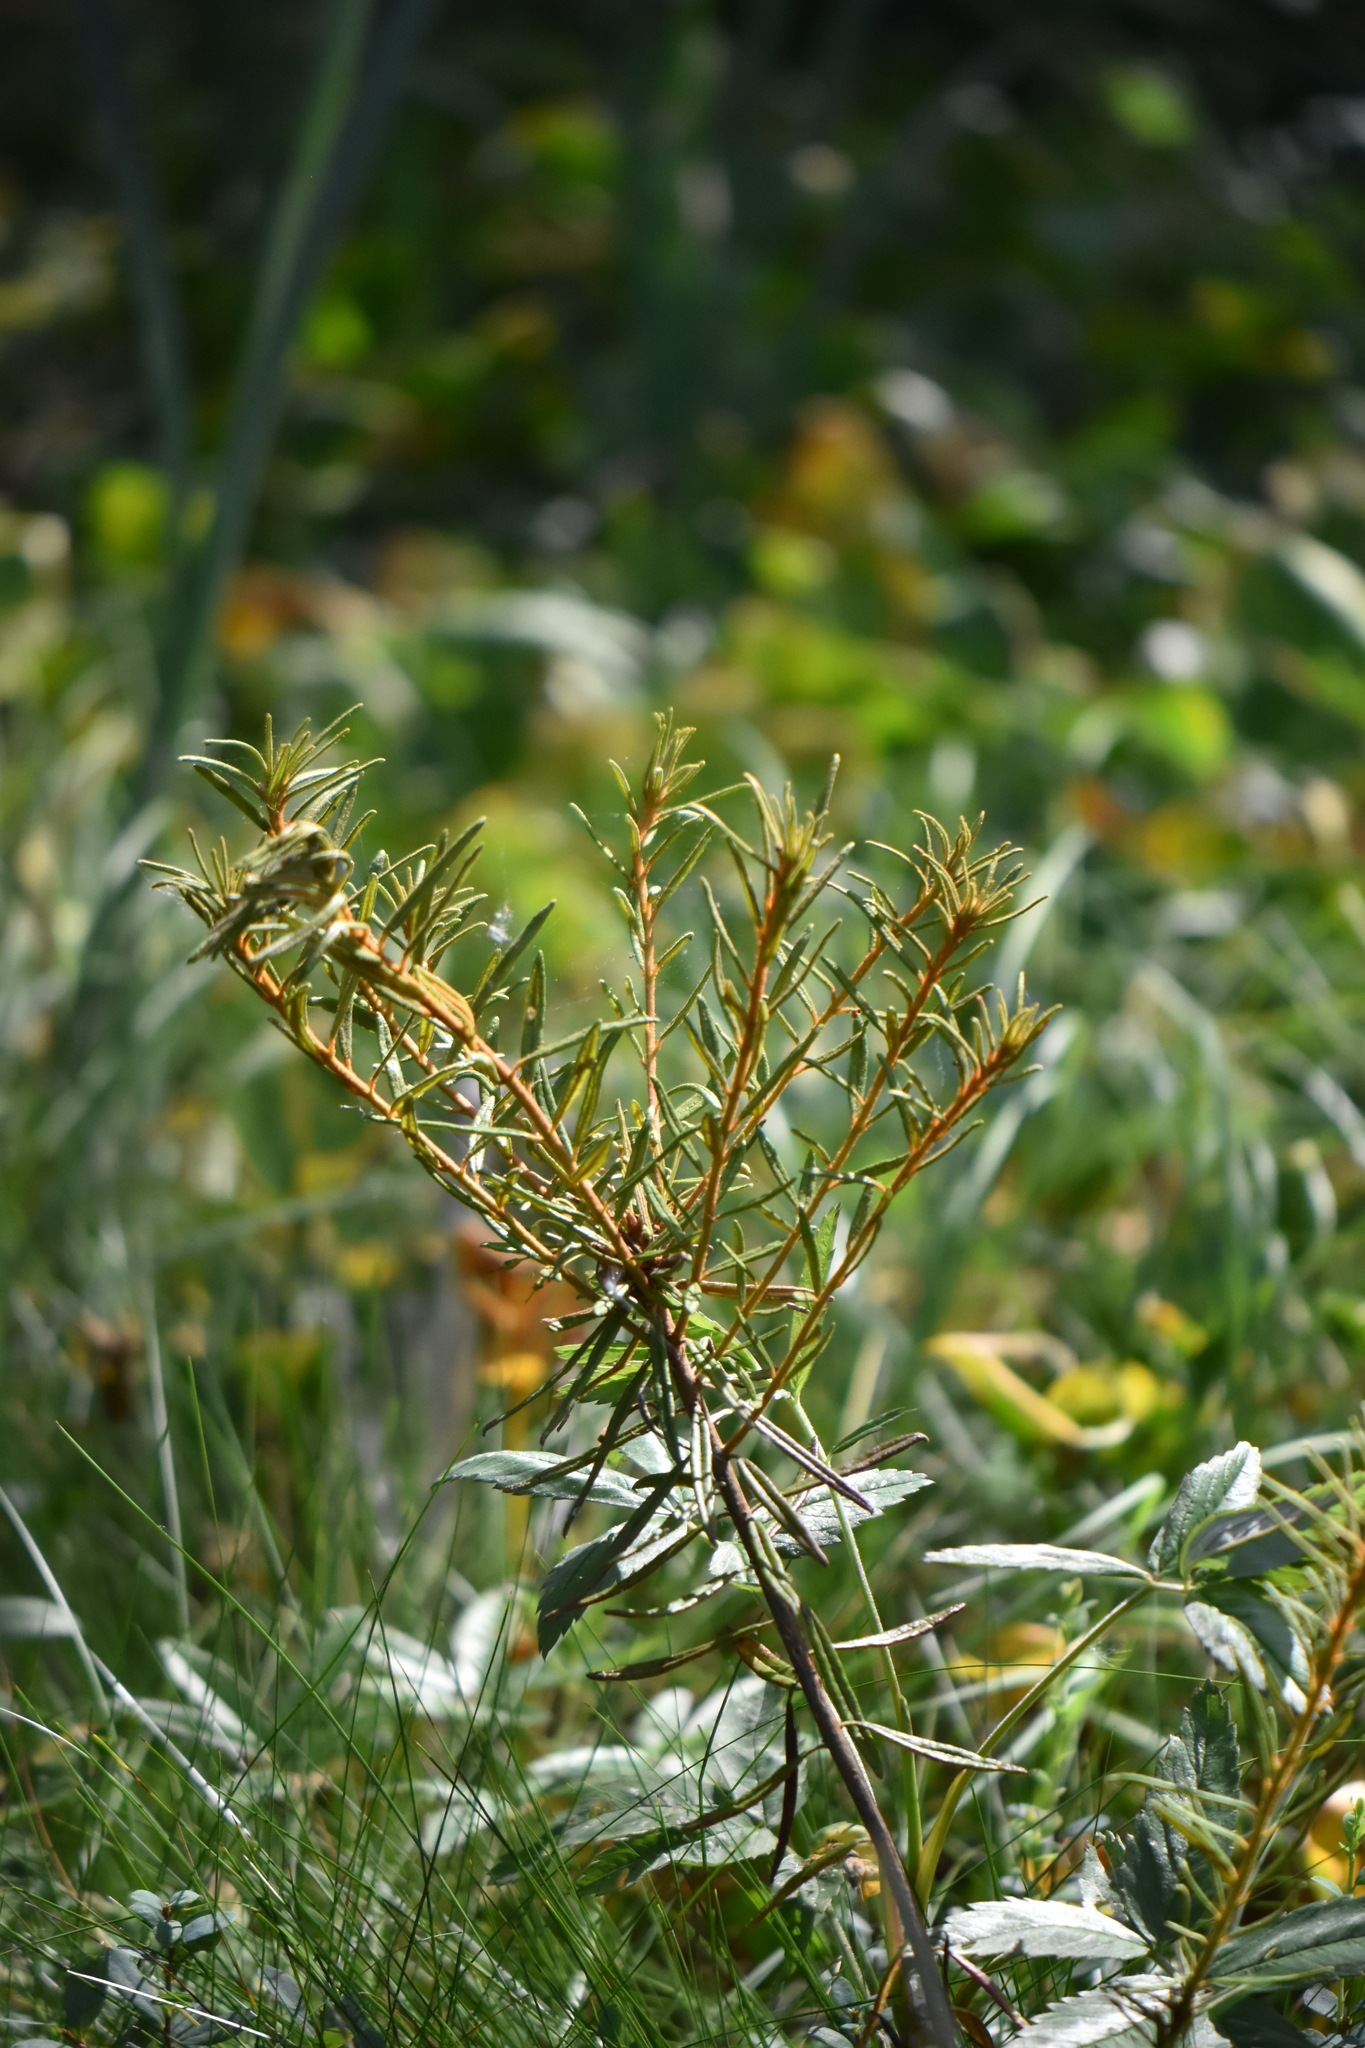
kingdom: Plantae
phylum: Tracheophyta
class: Magnoliopsida
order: Ericales
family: Ericaceae
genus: Rhododendron
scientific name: Rhododendron tomentosum
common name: Marsh labrador tea
